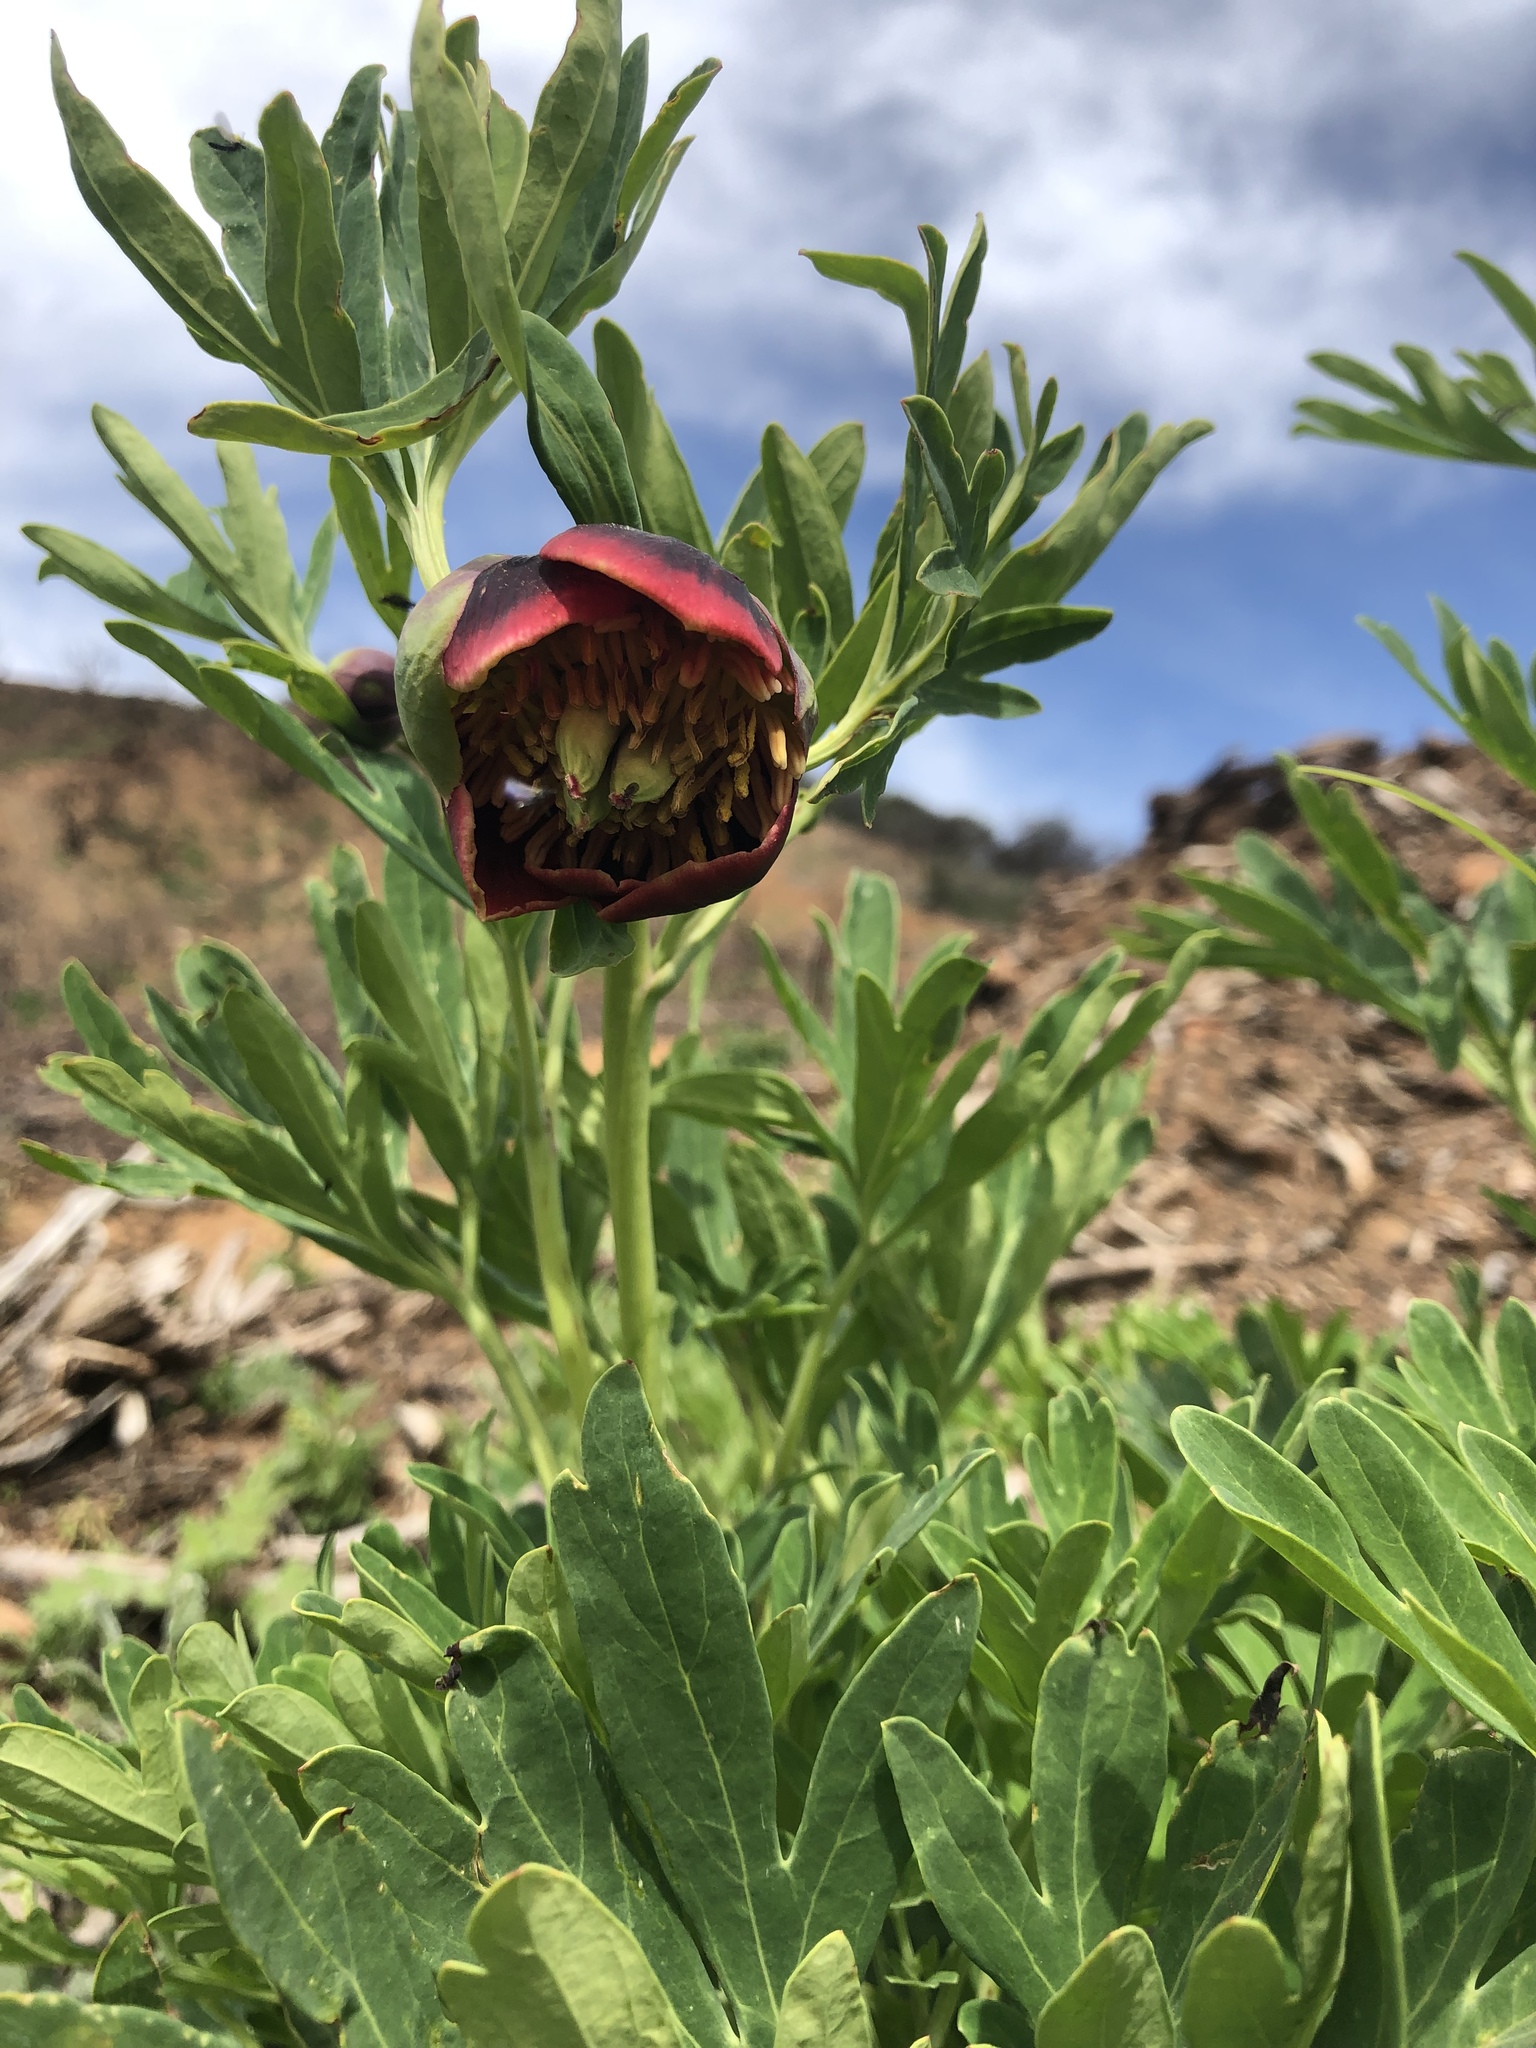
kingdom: Plantae
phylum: Tracheophyta
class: Magnoliopsida
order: Saxifragales
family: Paeoniaceae
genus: Paeonia
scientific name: Paeonia californica
